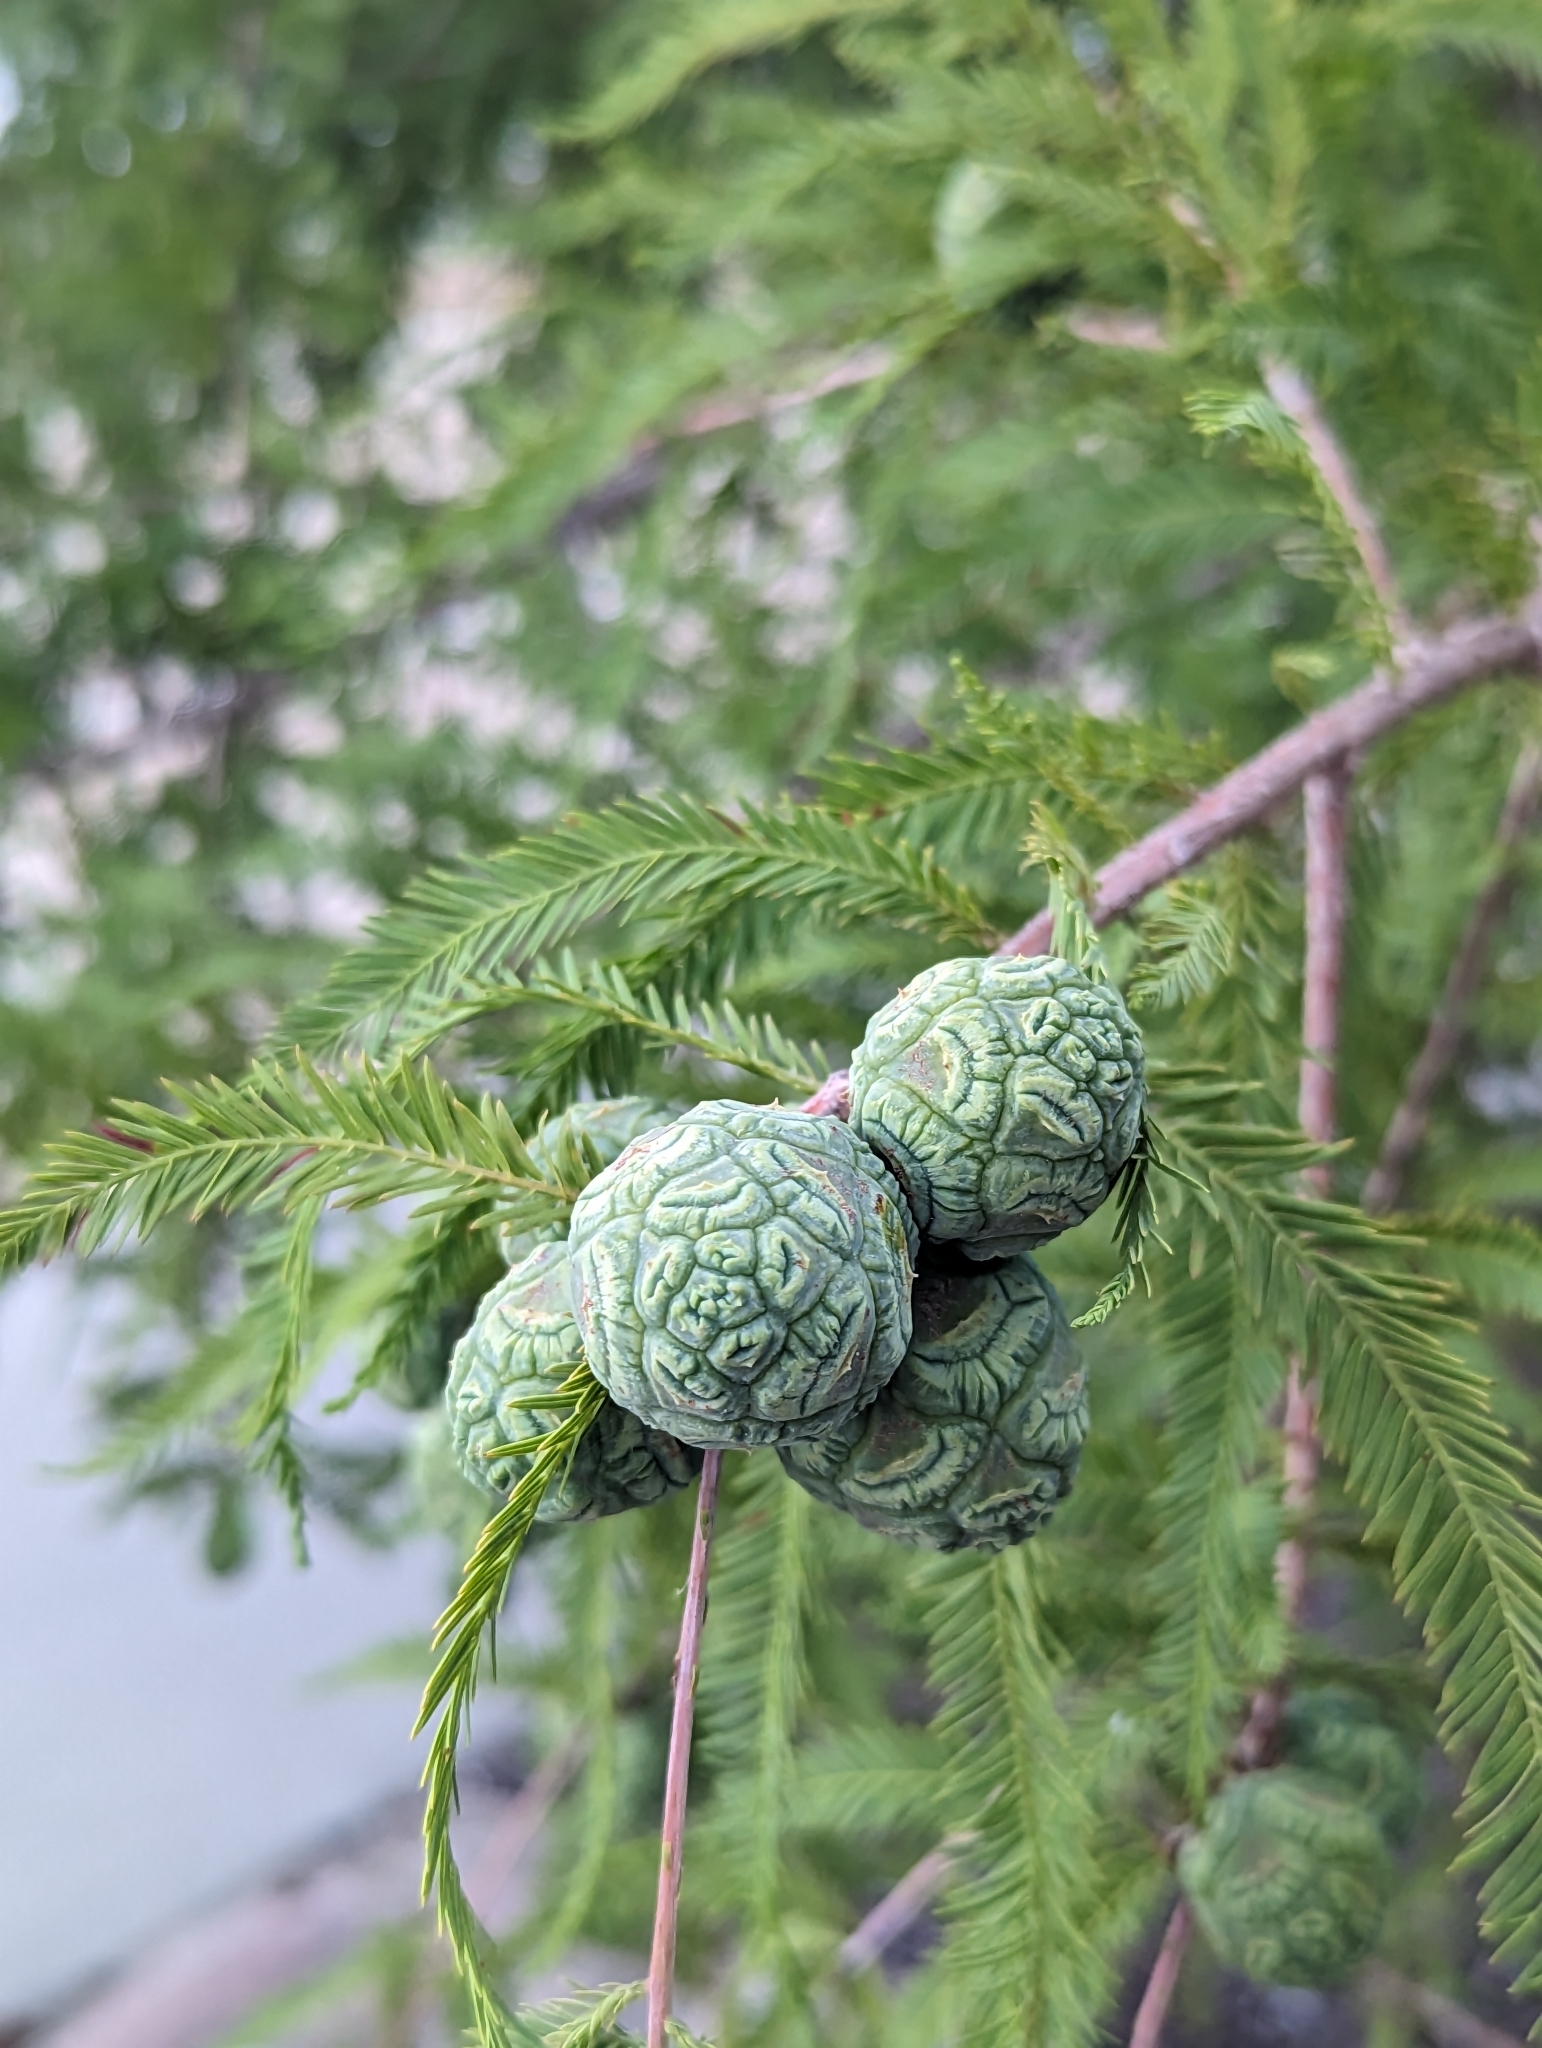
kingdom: Plantae
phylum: Tracheophyta
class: Pinopsida
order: Pinales
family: Cupressaceae
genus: Taxodium
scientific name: Taxodium distichum
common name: Bald cypress
